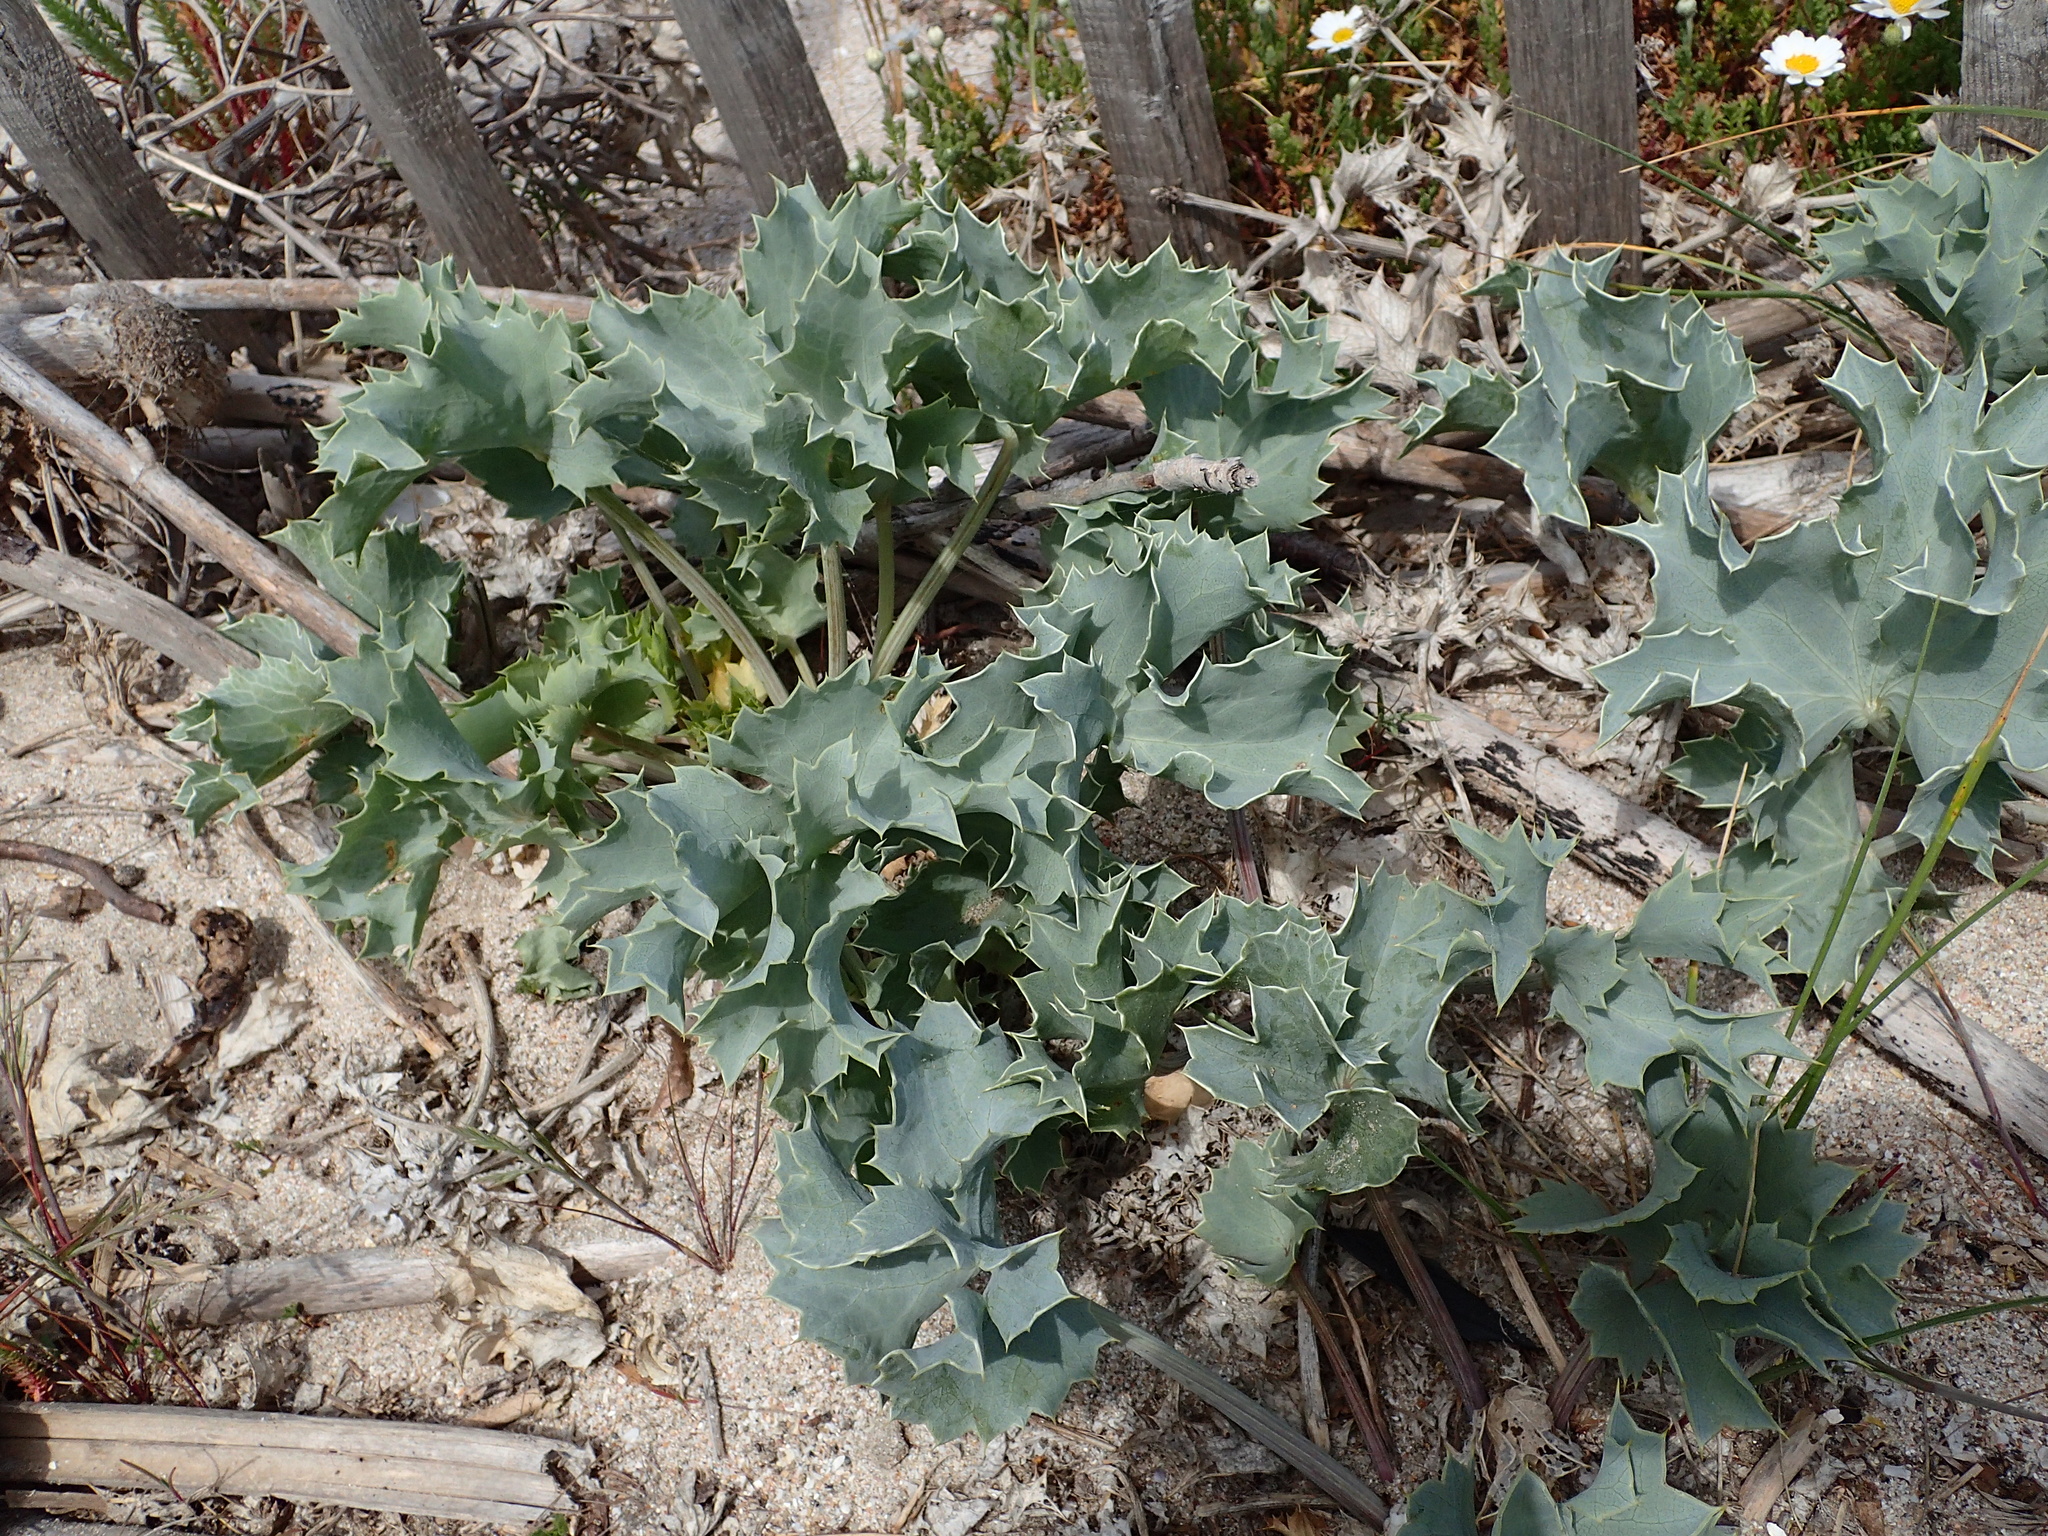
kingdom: Plantae
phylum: Tracheophyta
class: Magnoliopsida
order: Apiales
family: Apiaceae
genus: Eryngium
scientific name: Eryngium maritimum
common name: Sea-holly
